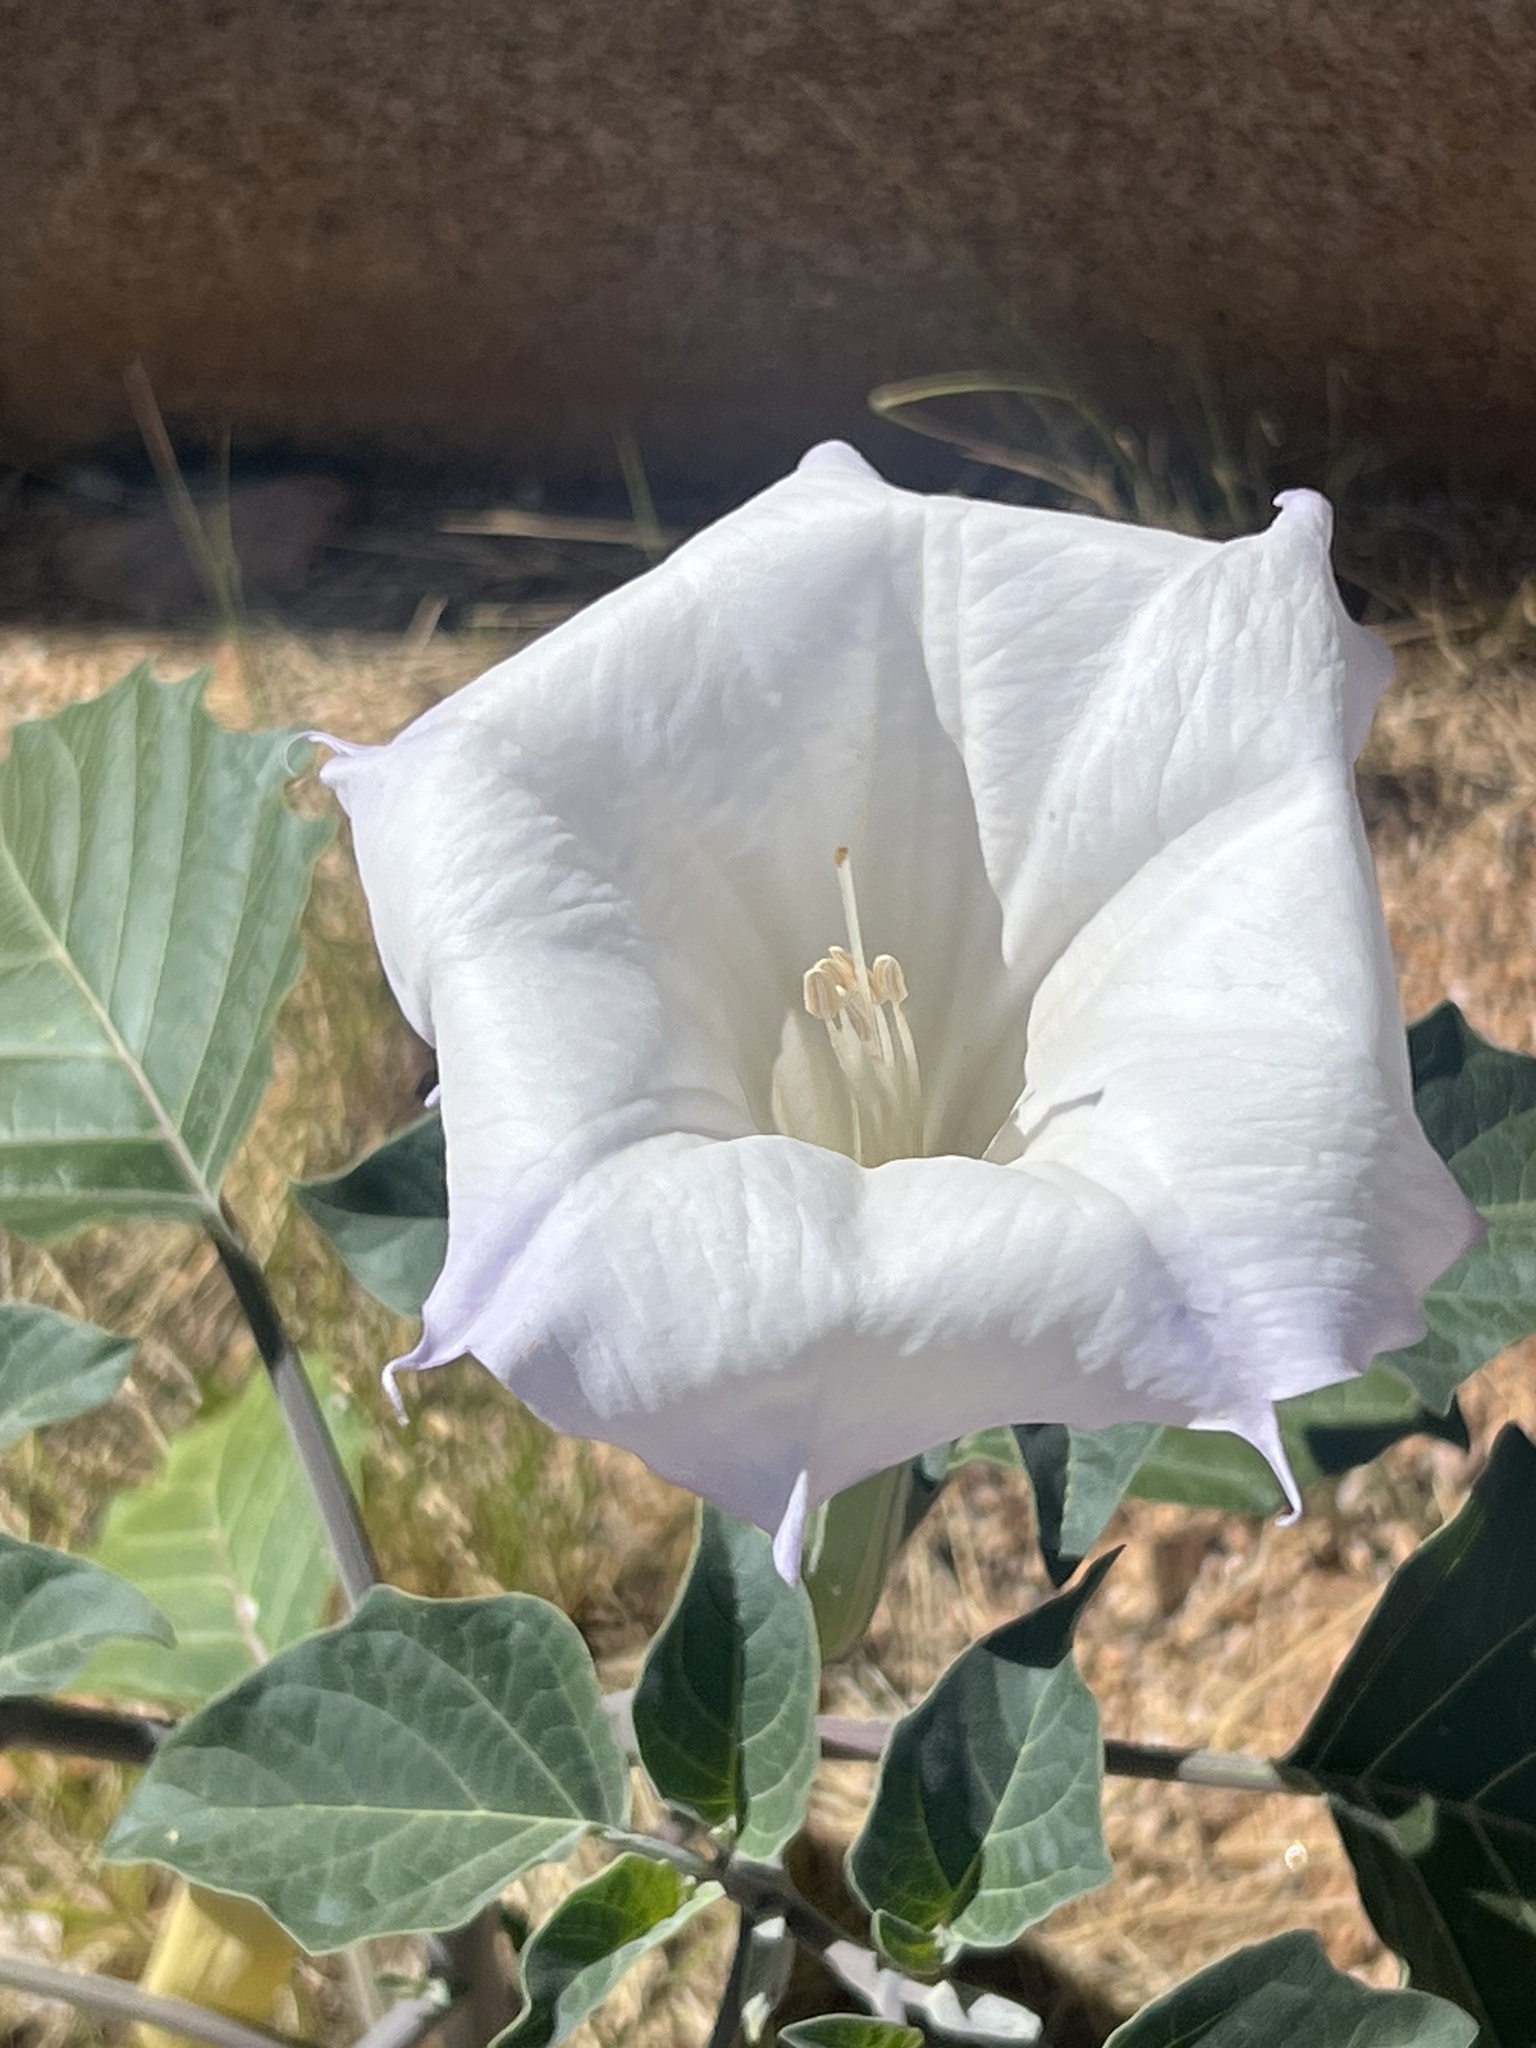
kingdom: Plantae
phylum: Tracheophyta
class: Magnoliopsida
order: Solanales
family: Solanaceae
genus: Datura
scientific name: Datura wrightii
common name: Sacred thorn-apple
